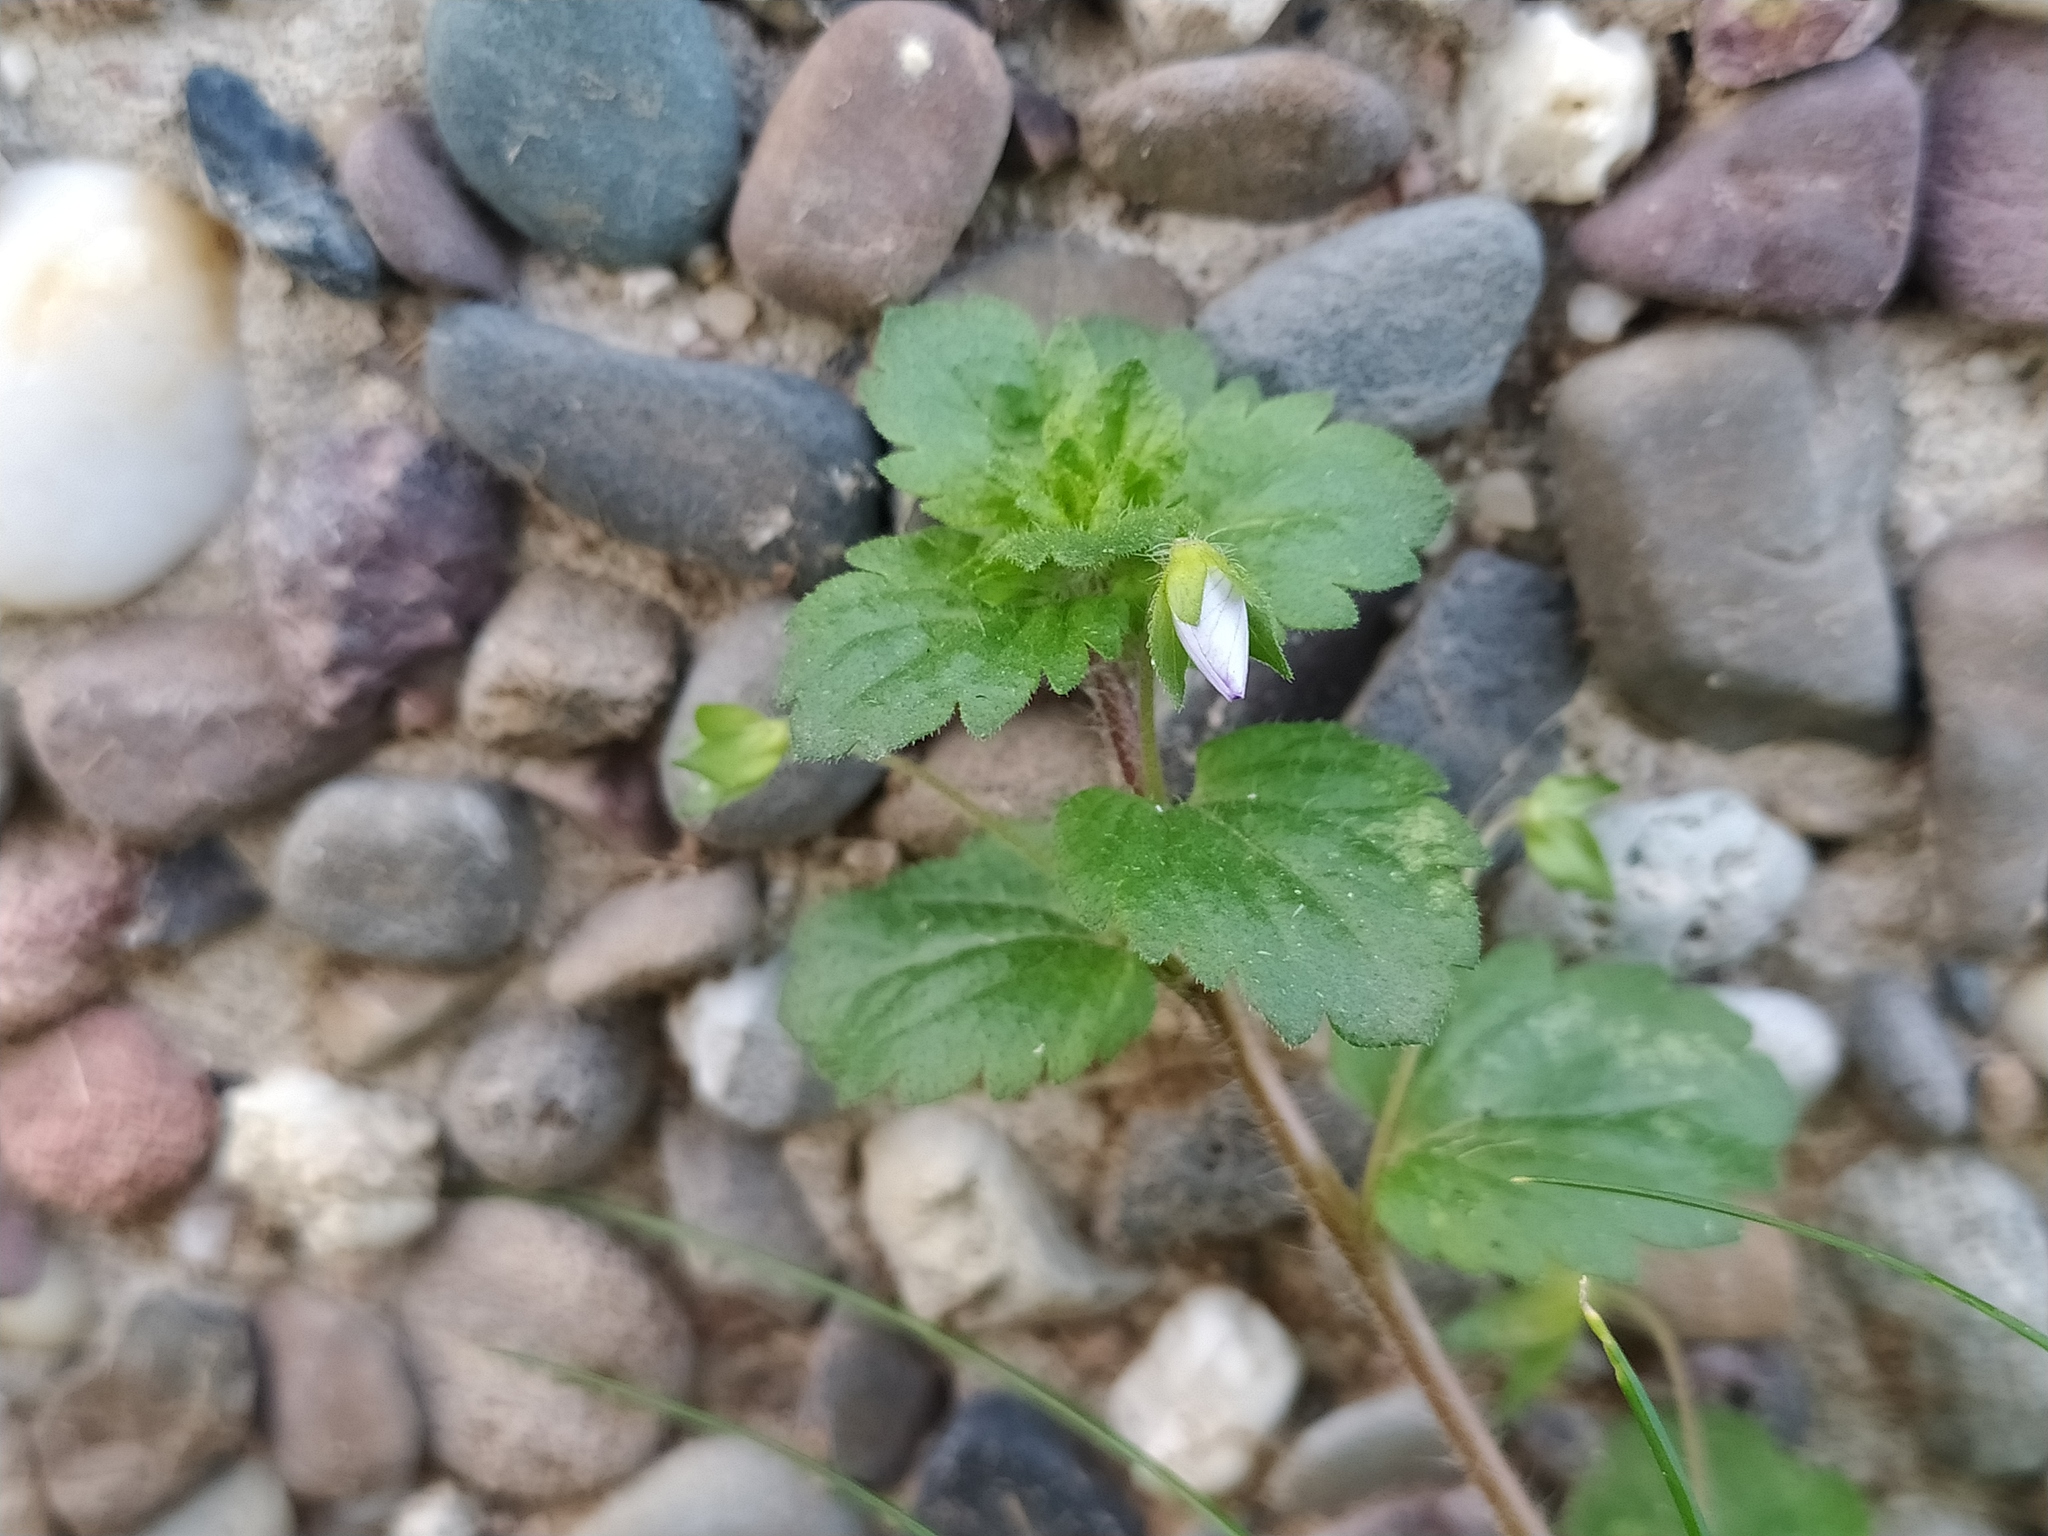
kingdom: Plantae
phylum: Tracheophyta
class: Magnoliopsida
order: Lamiales
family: Plantaginaceae
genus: Veronica
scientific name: Veronica persica
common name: Common field-speedwell
